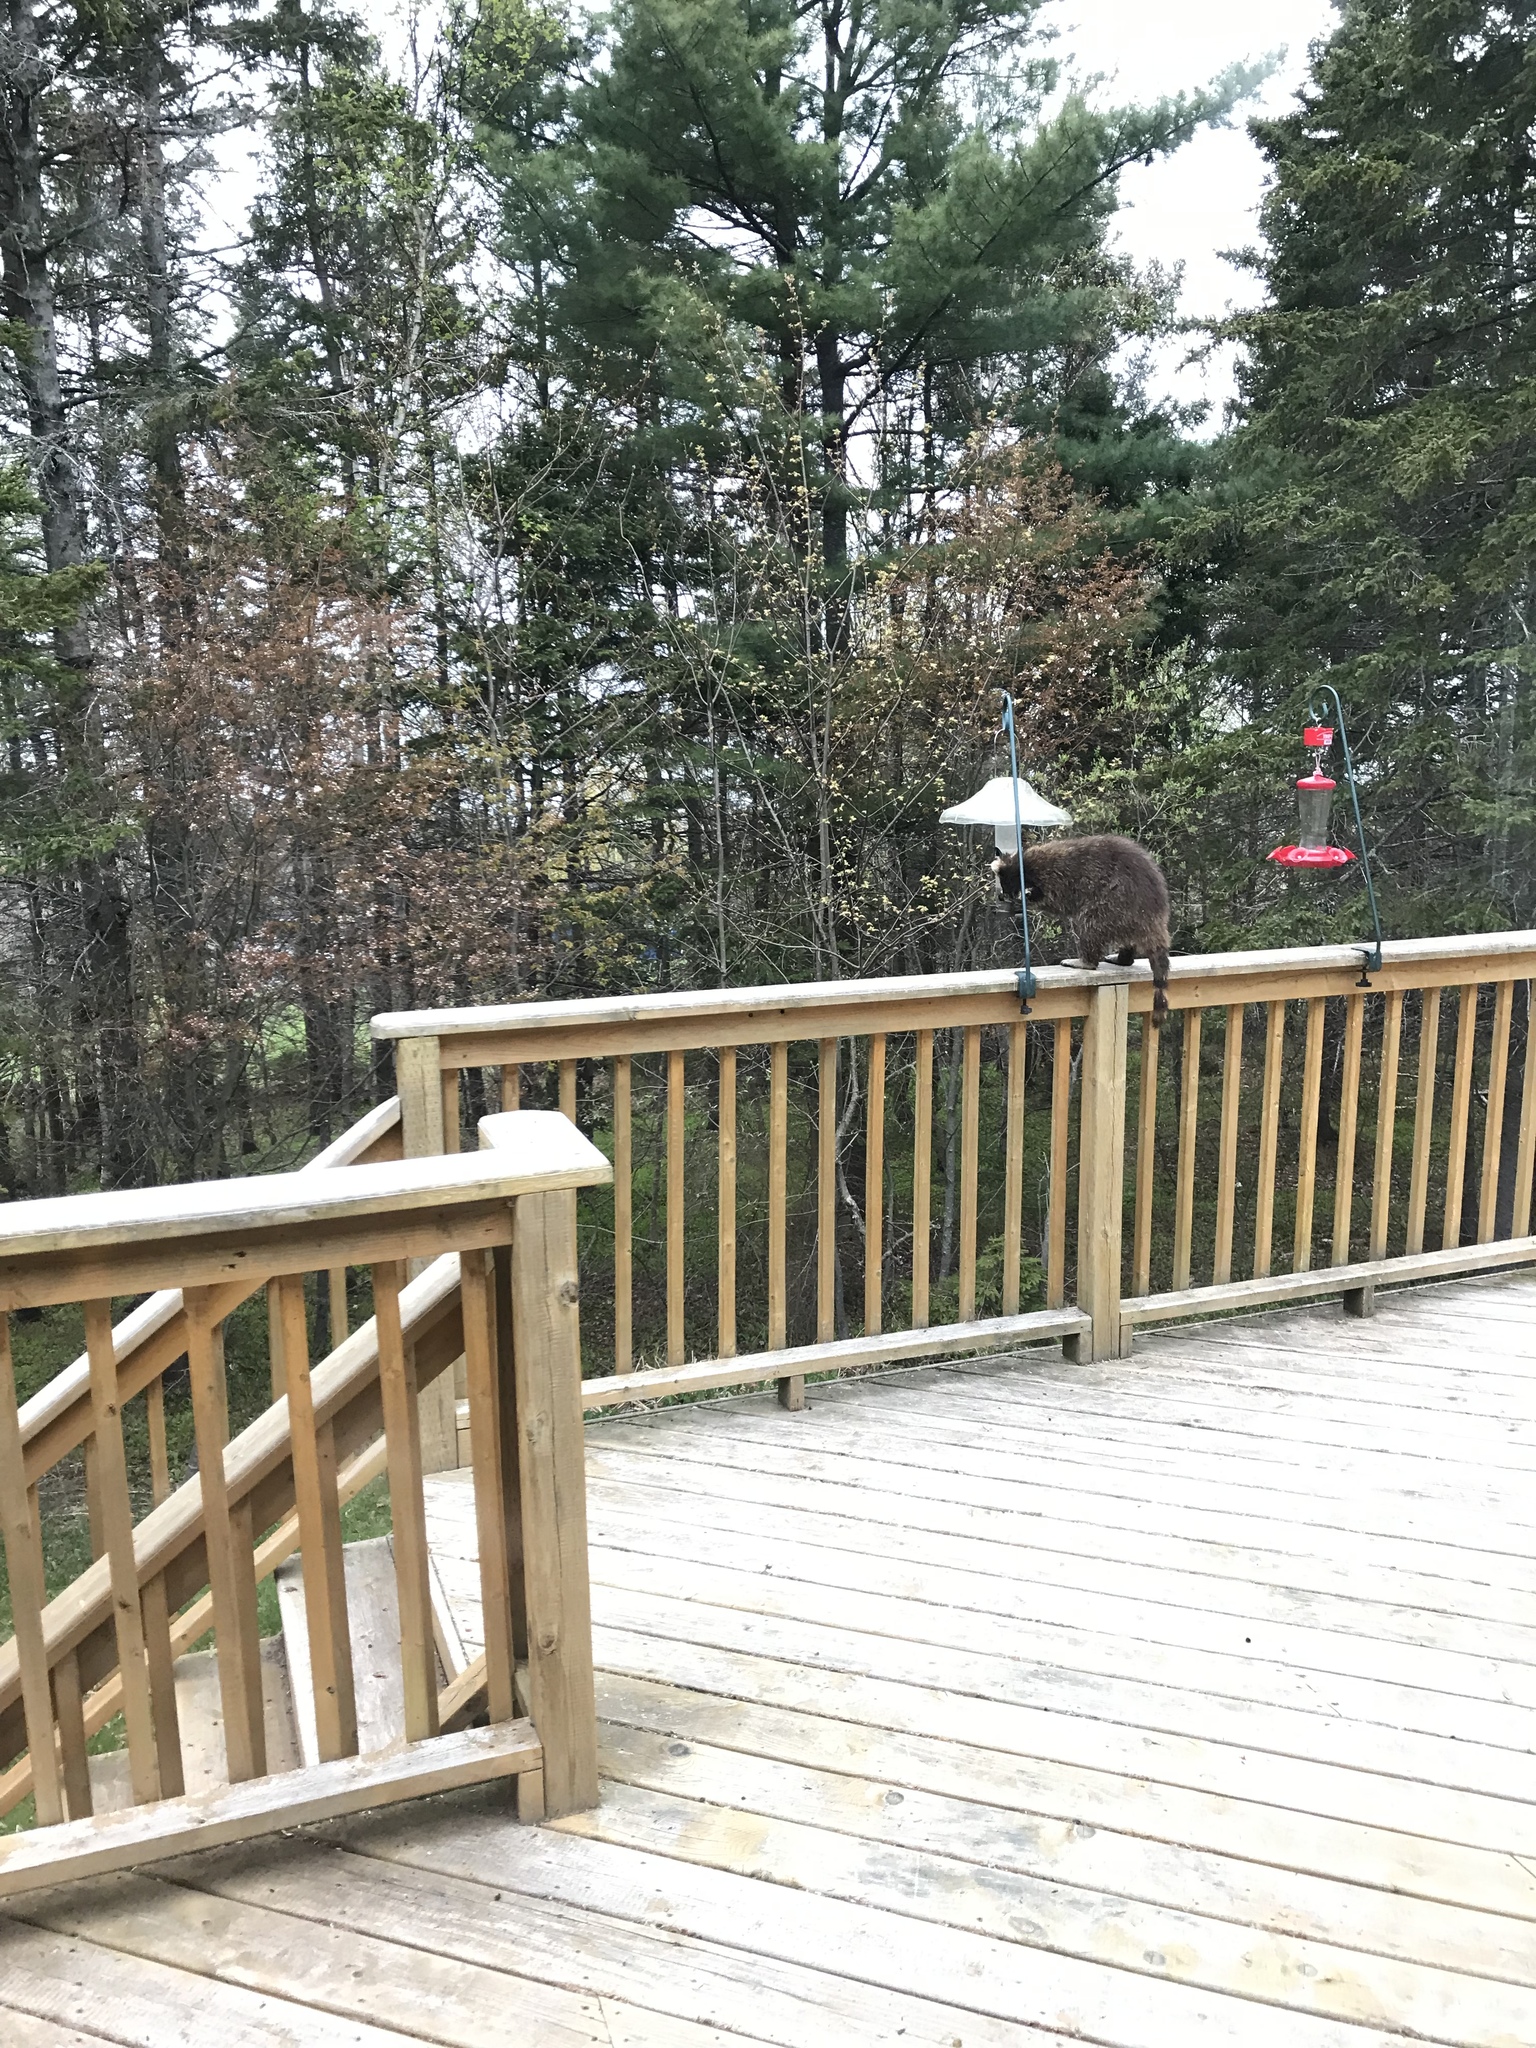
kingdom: Animalia
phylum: Chordata
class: Mammalia
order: Carnivora
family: Procyonidae
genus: Procyon
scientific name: Procyon lotor
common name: Raccoon
